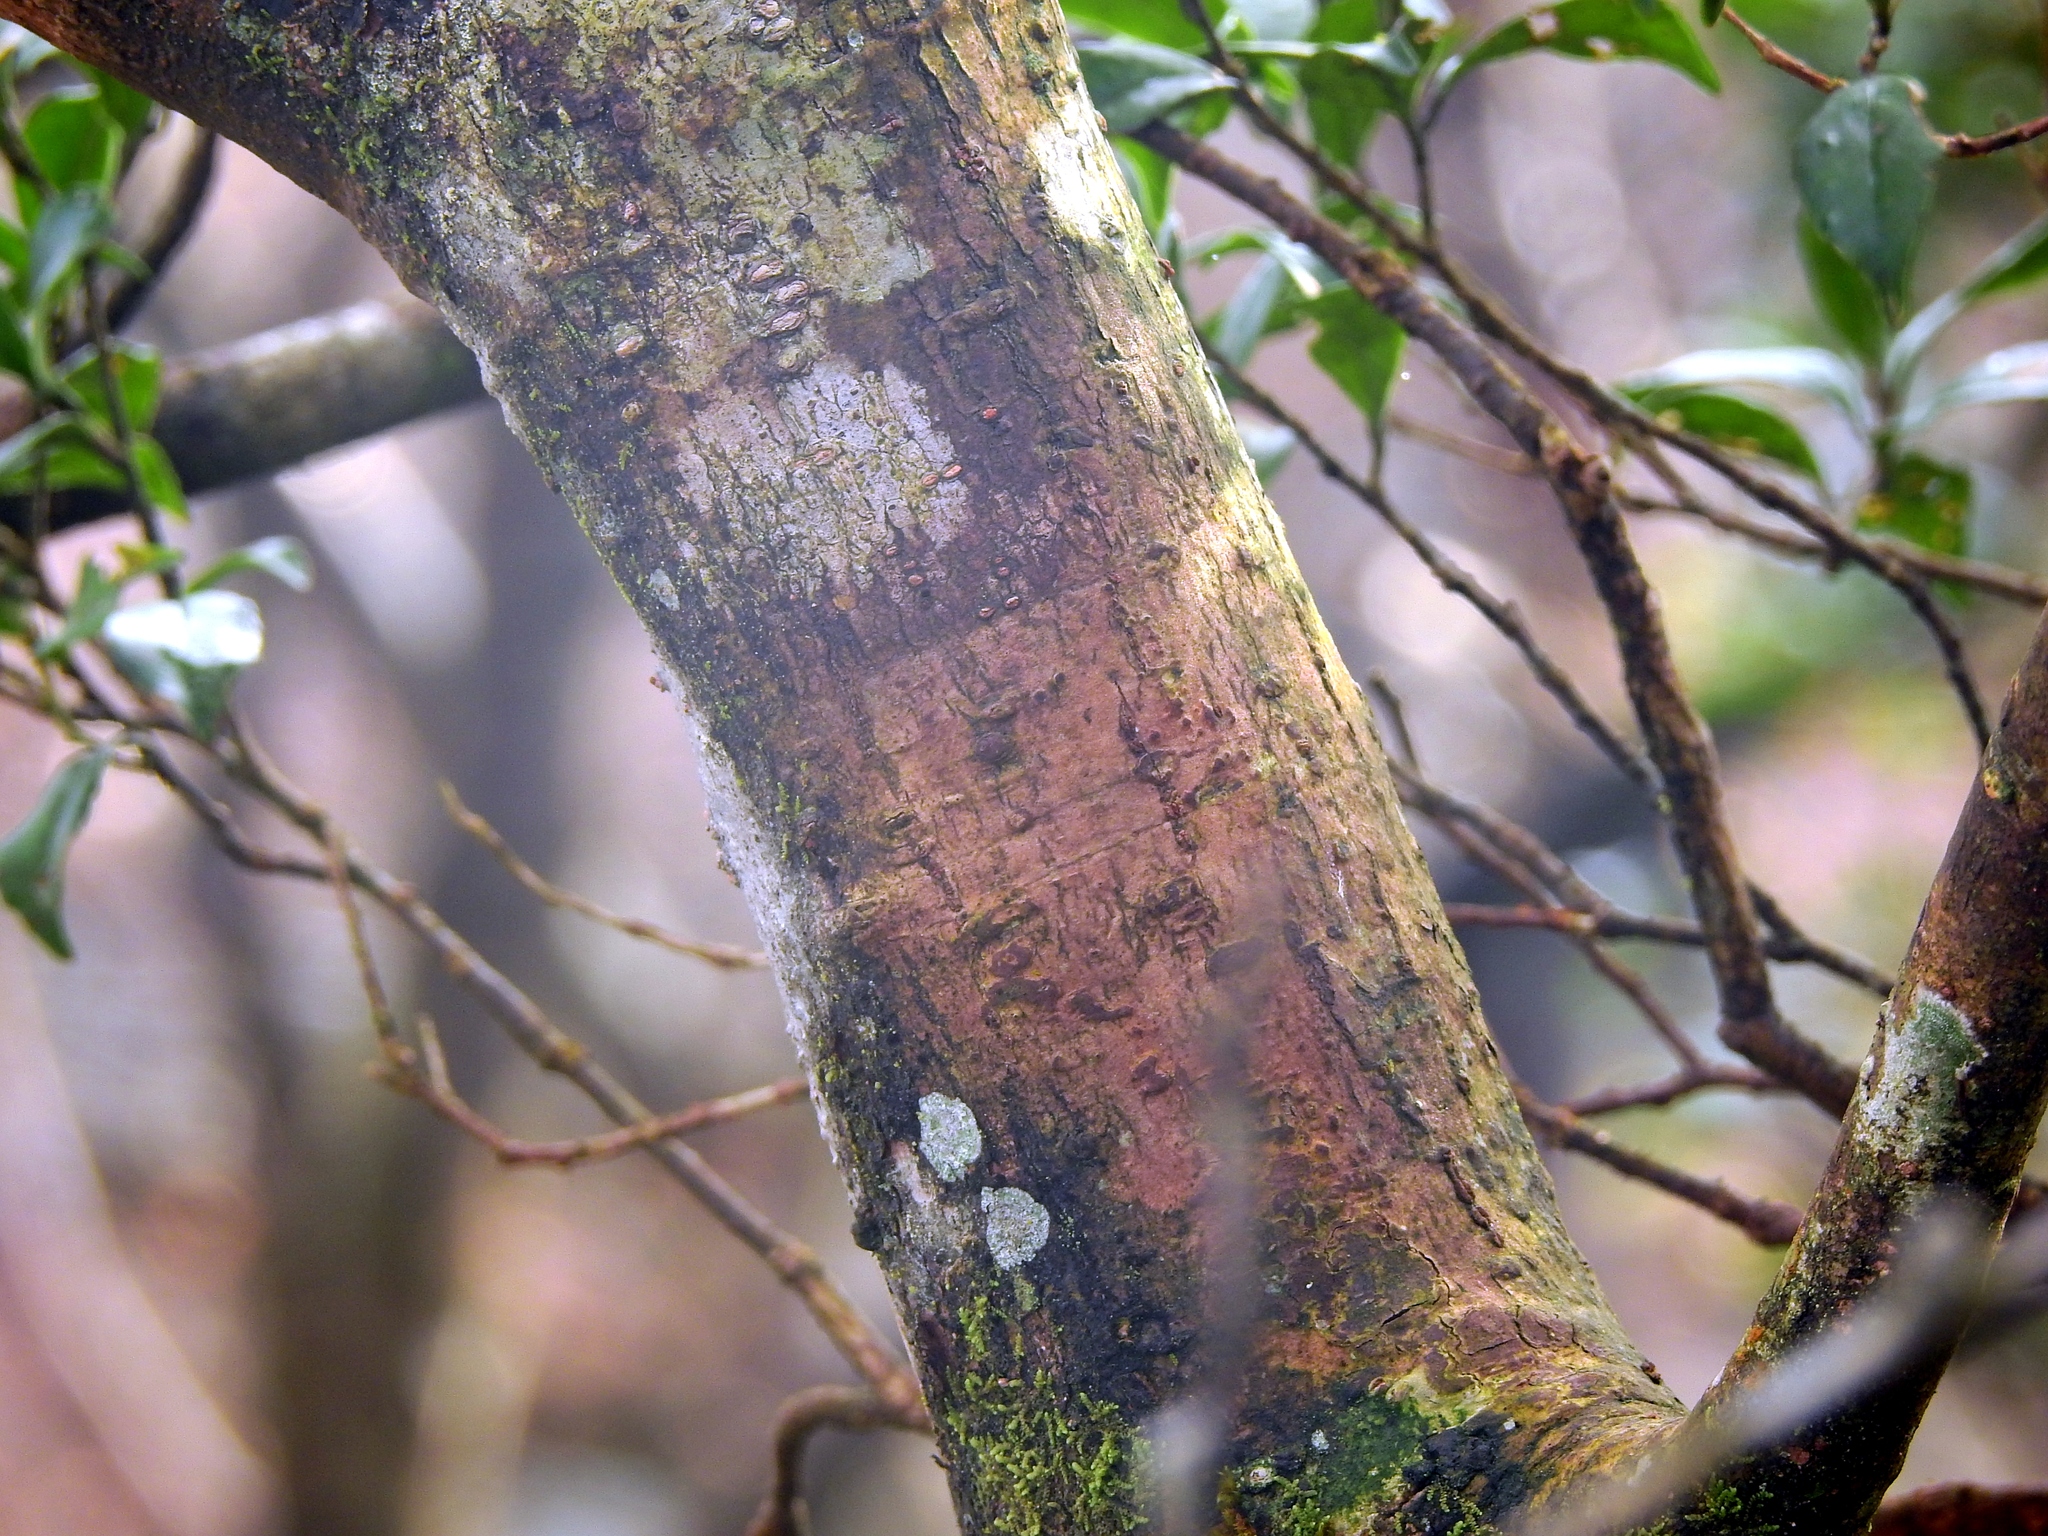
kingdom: Plantae
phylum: Tracheophyta
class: Magnoliopsida
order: Dipsacales
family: Viburnaceae
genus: Viburnum
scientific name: Viburnum furcatum
